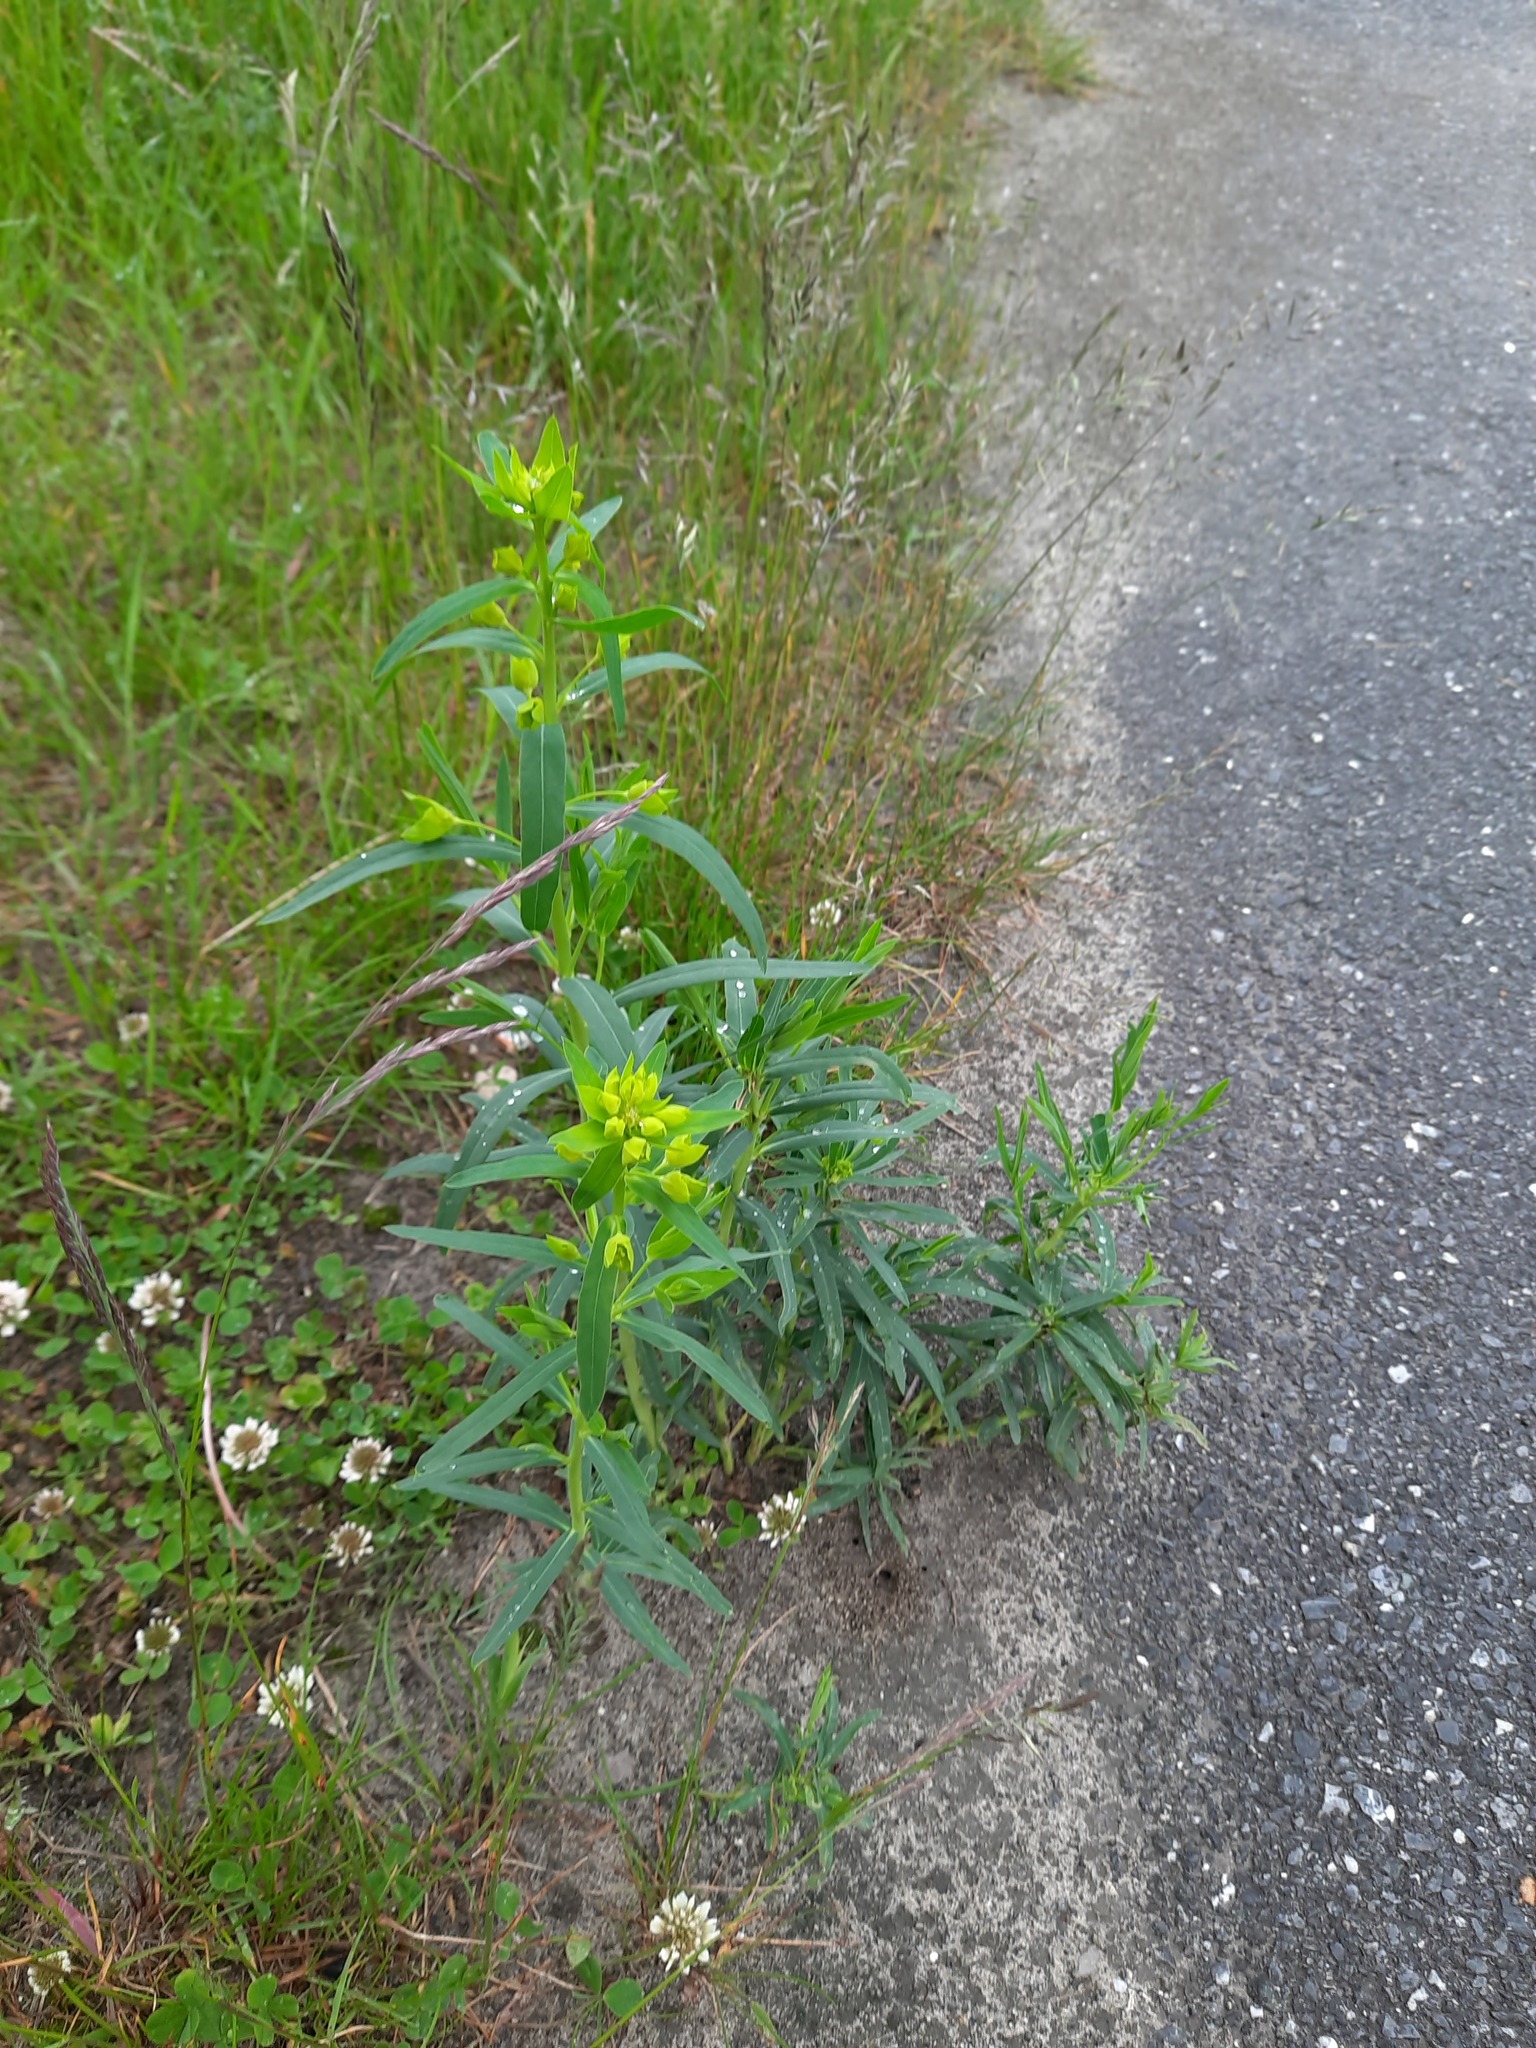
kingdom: Plantae
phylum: Tracheophyta
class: Magnoliopsida
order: Malpighiales
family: Euphorbiaceae
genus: Euphorbia
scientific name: Euphorbia virgata
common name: Leafy spurge
